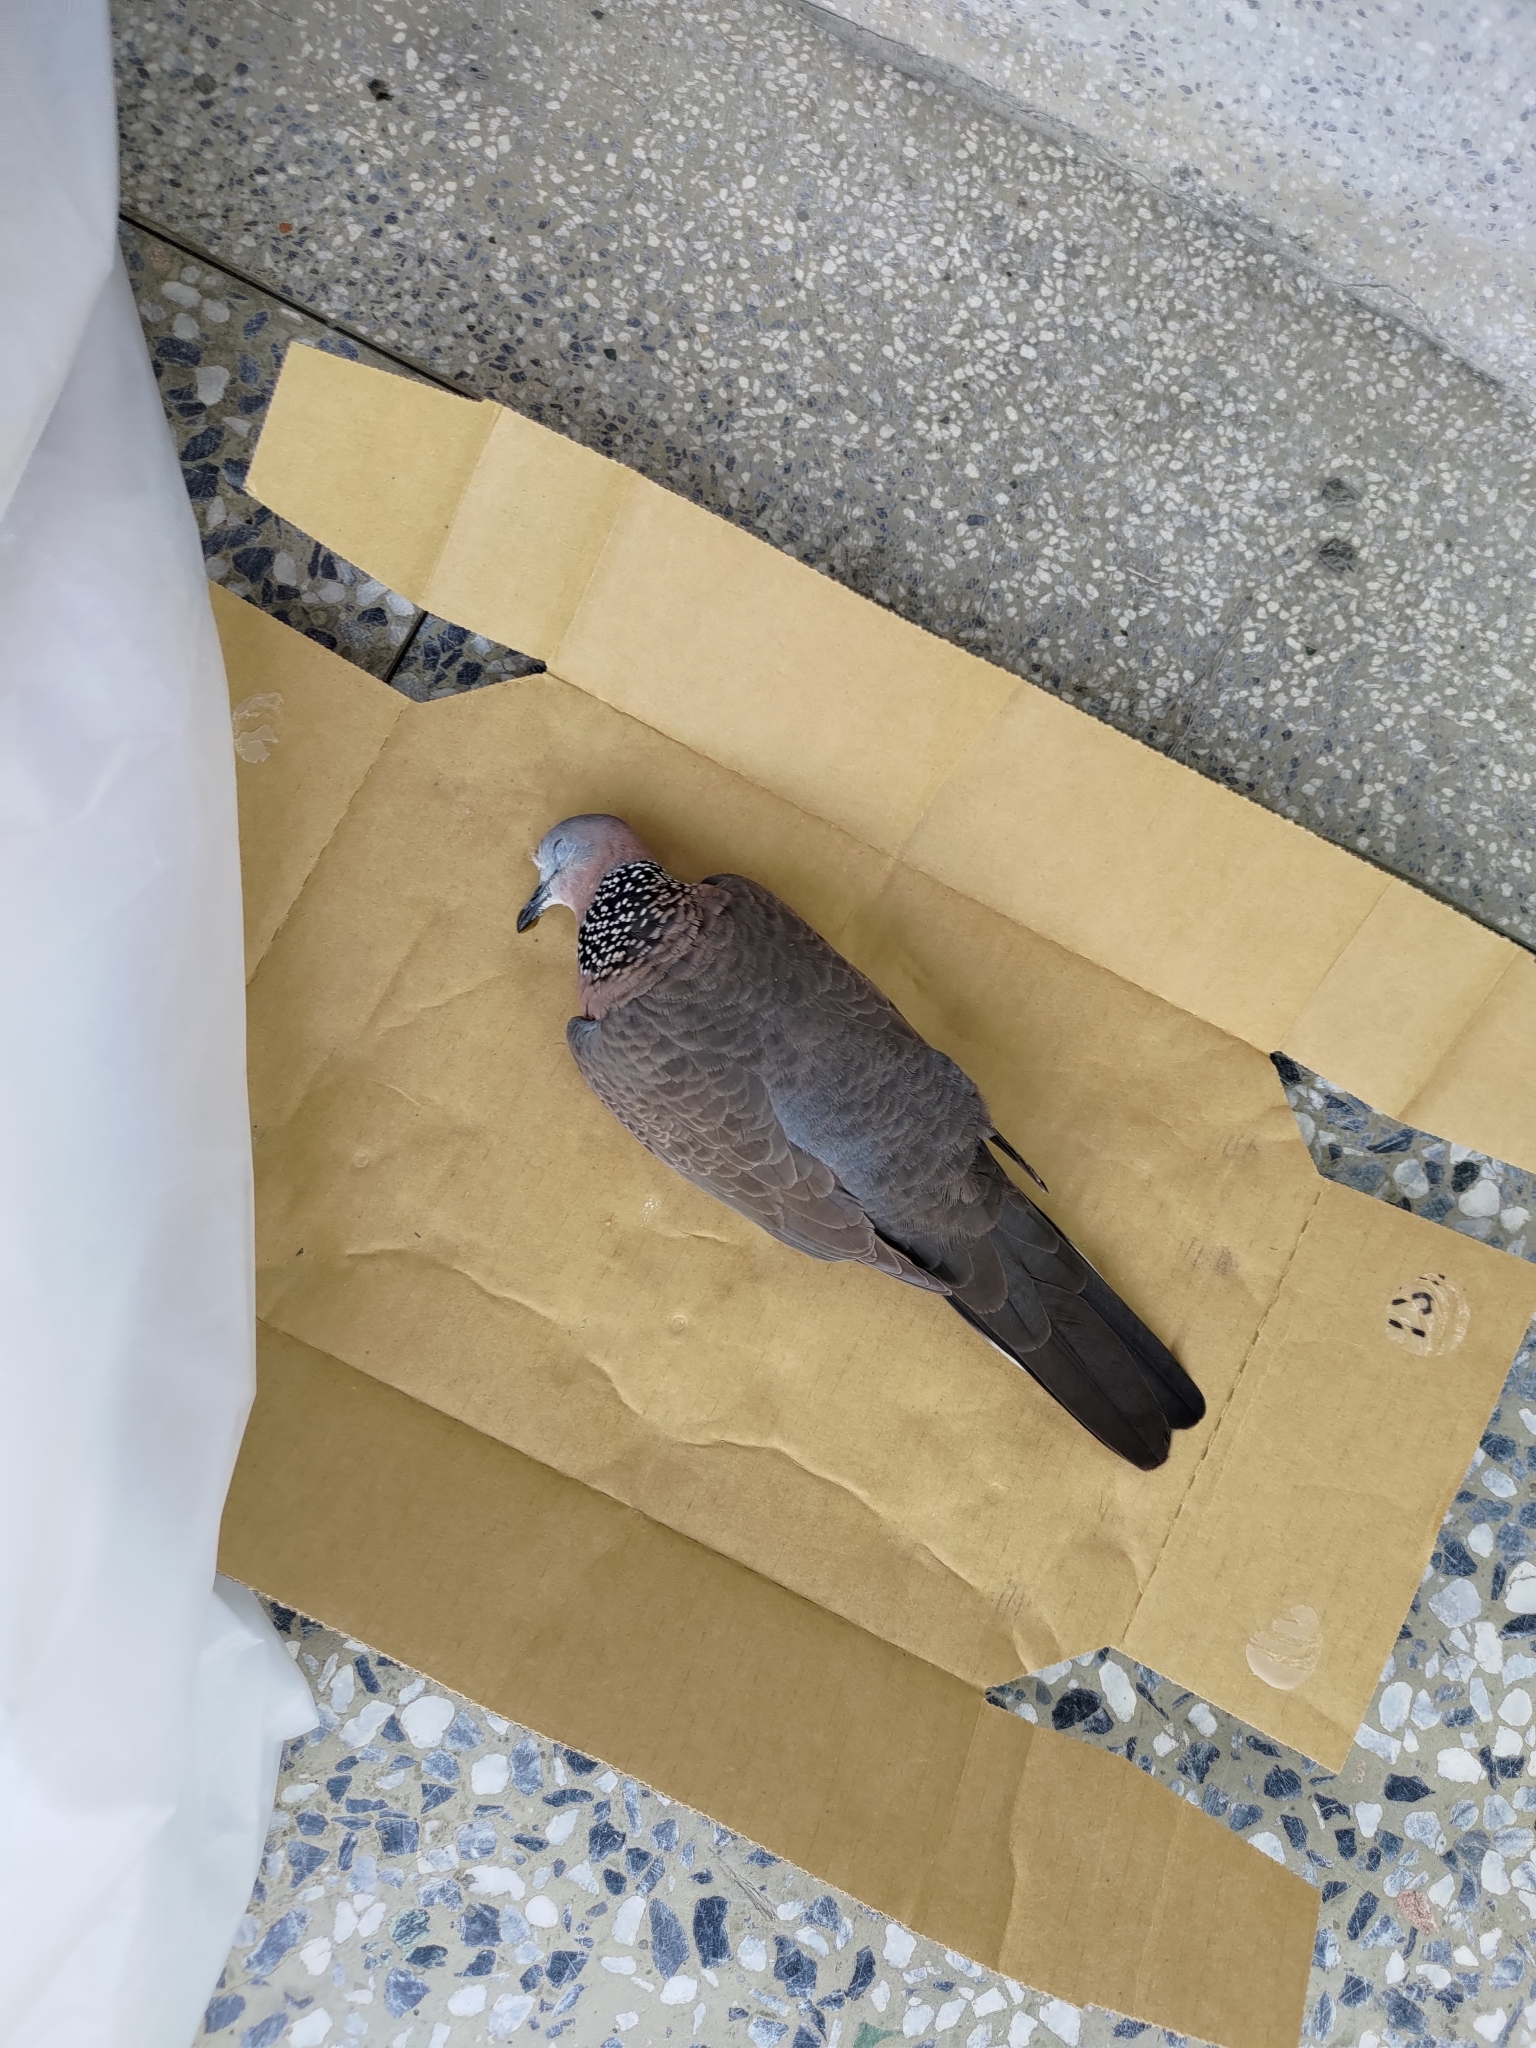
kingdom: Animalia
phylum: Chordata
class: Aves
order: Columbiformes
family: Columbidae
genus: Spilopelia
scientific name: Spilopelia chinensis
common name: Spotted dove
